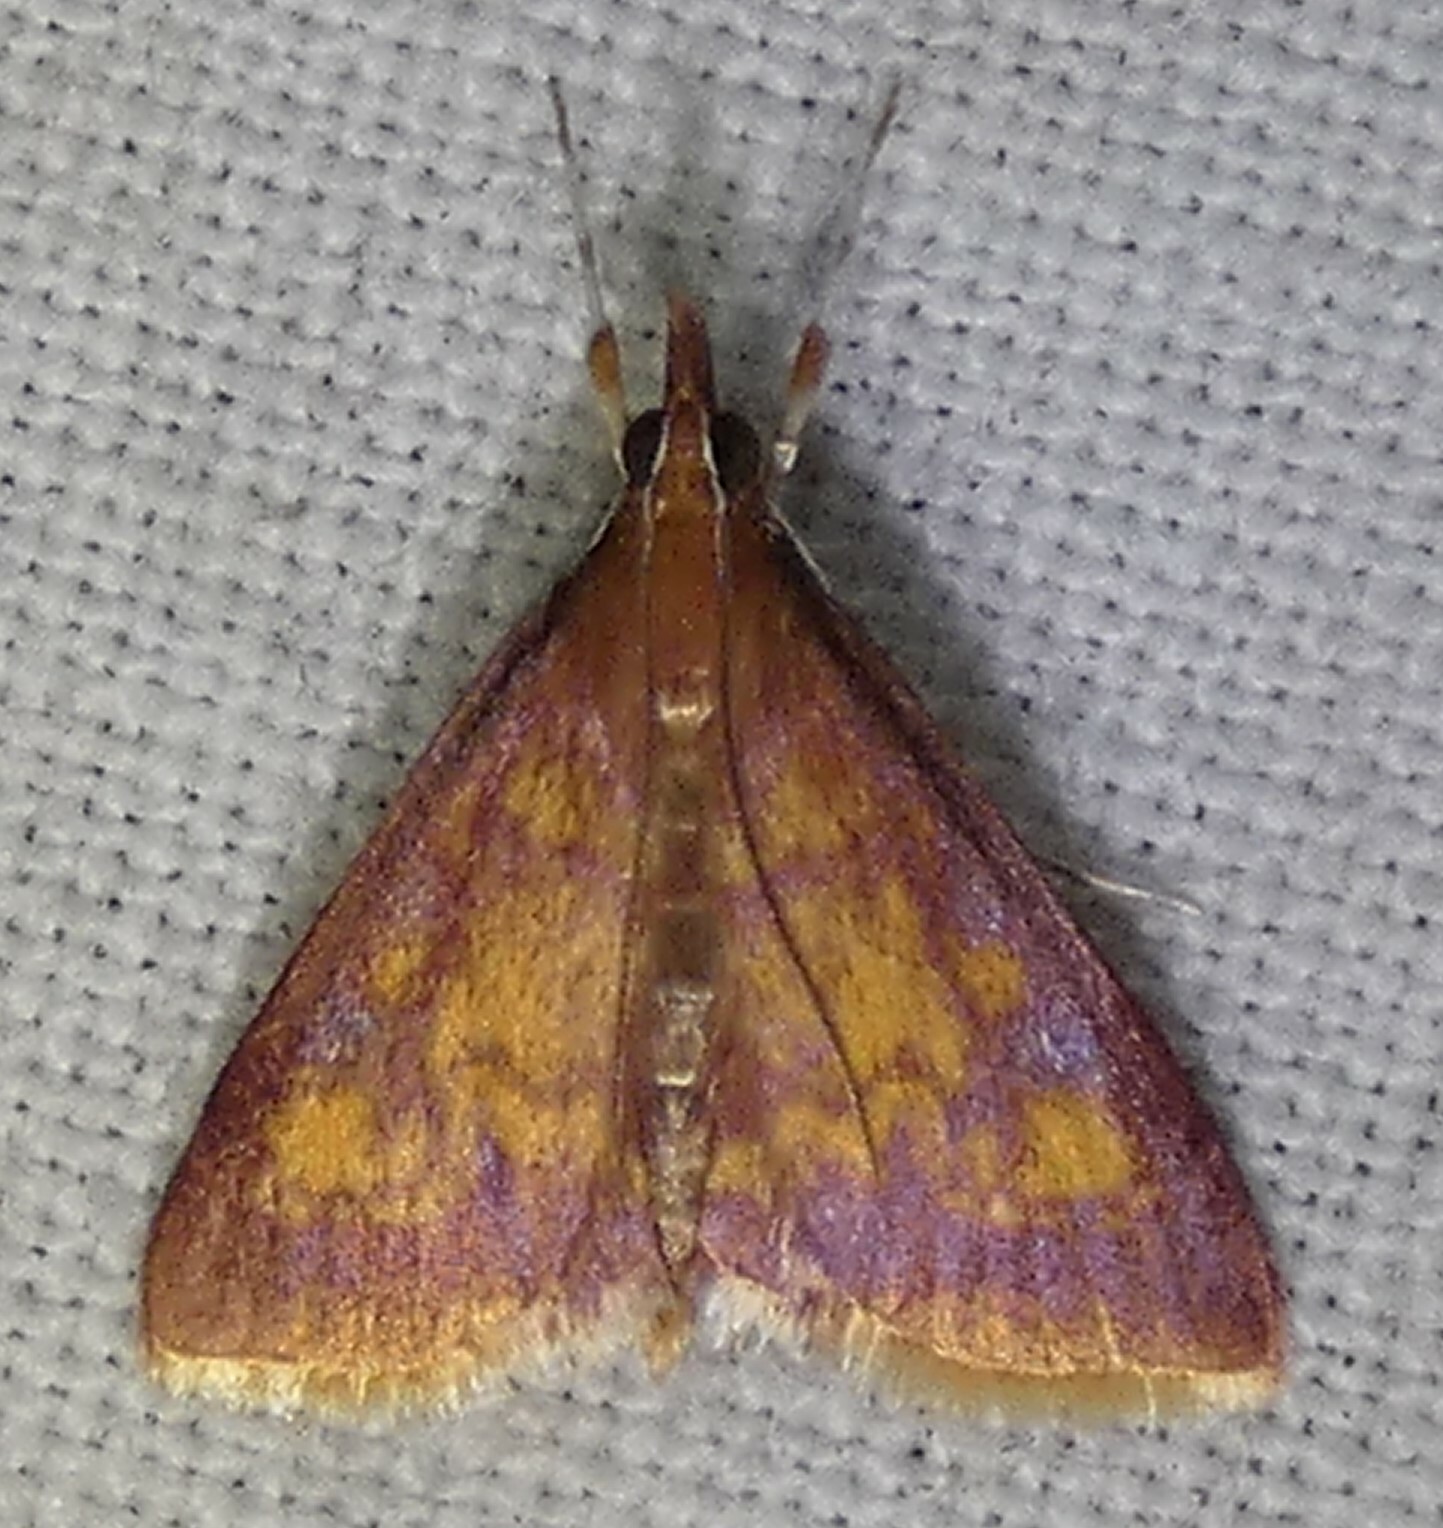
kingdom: Animalia
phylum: Arthropoda
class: Insecta
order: Lepidoptera
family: Crambidae
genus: Pyrausta
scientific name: Pyrausta acrionalis
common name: Mint-loving pyrausta moth
